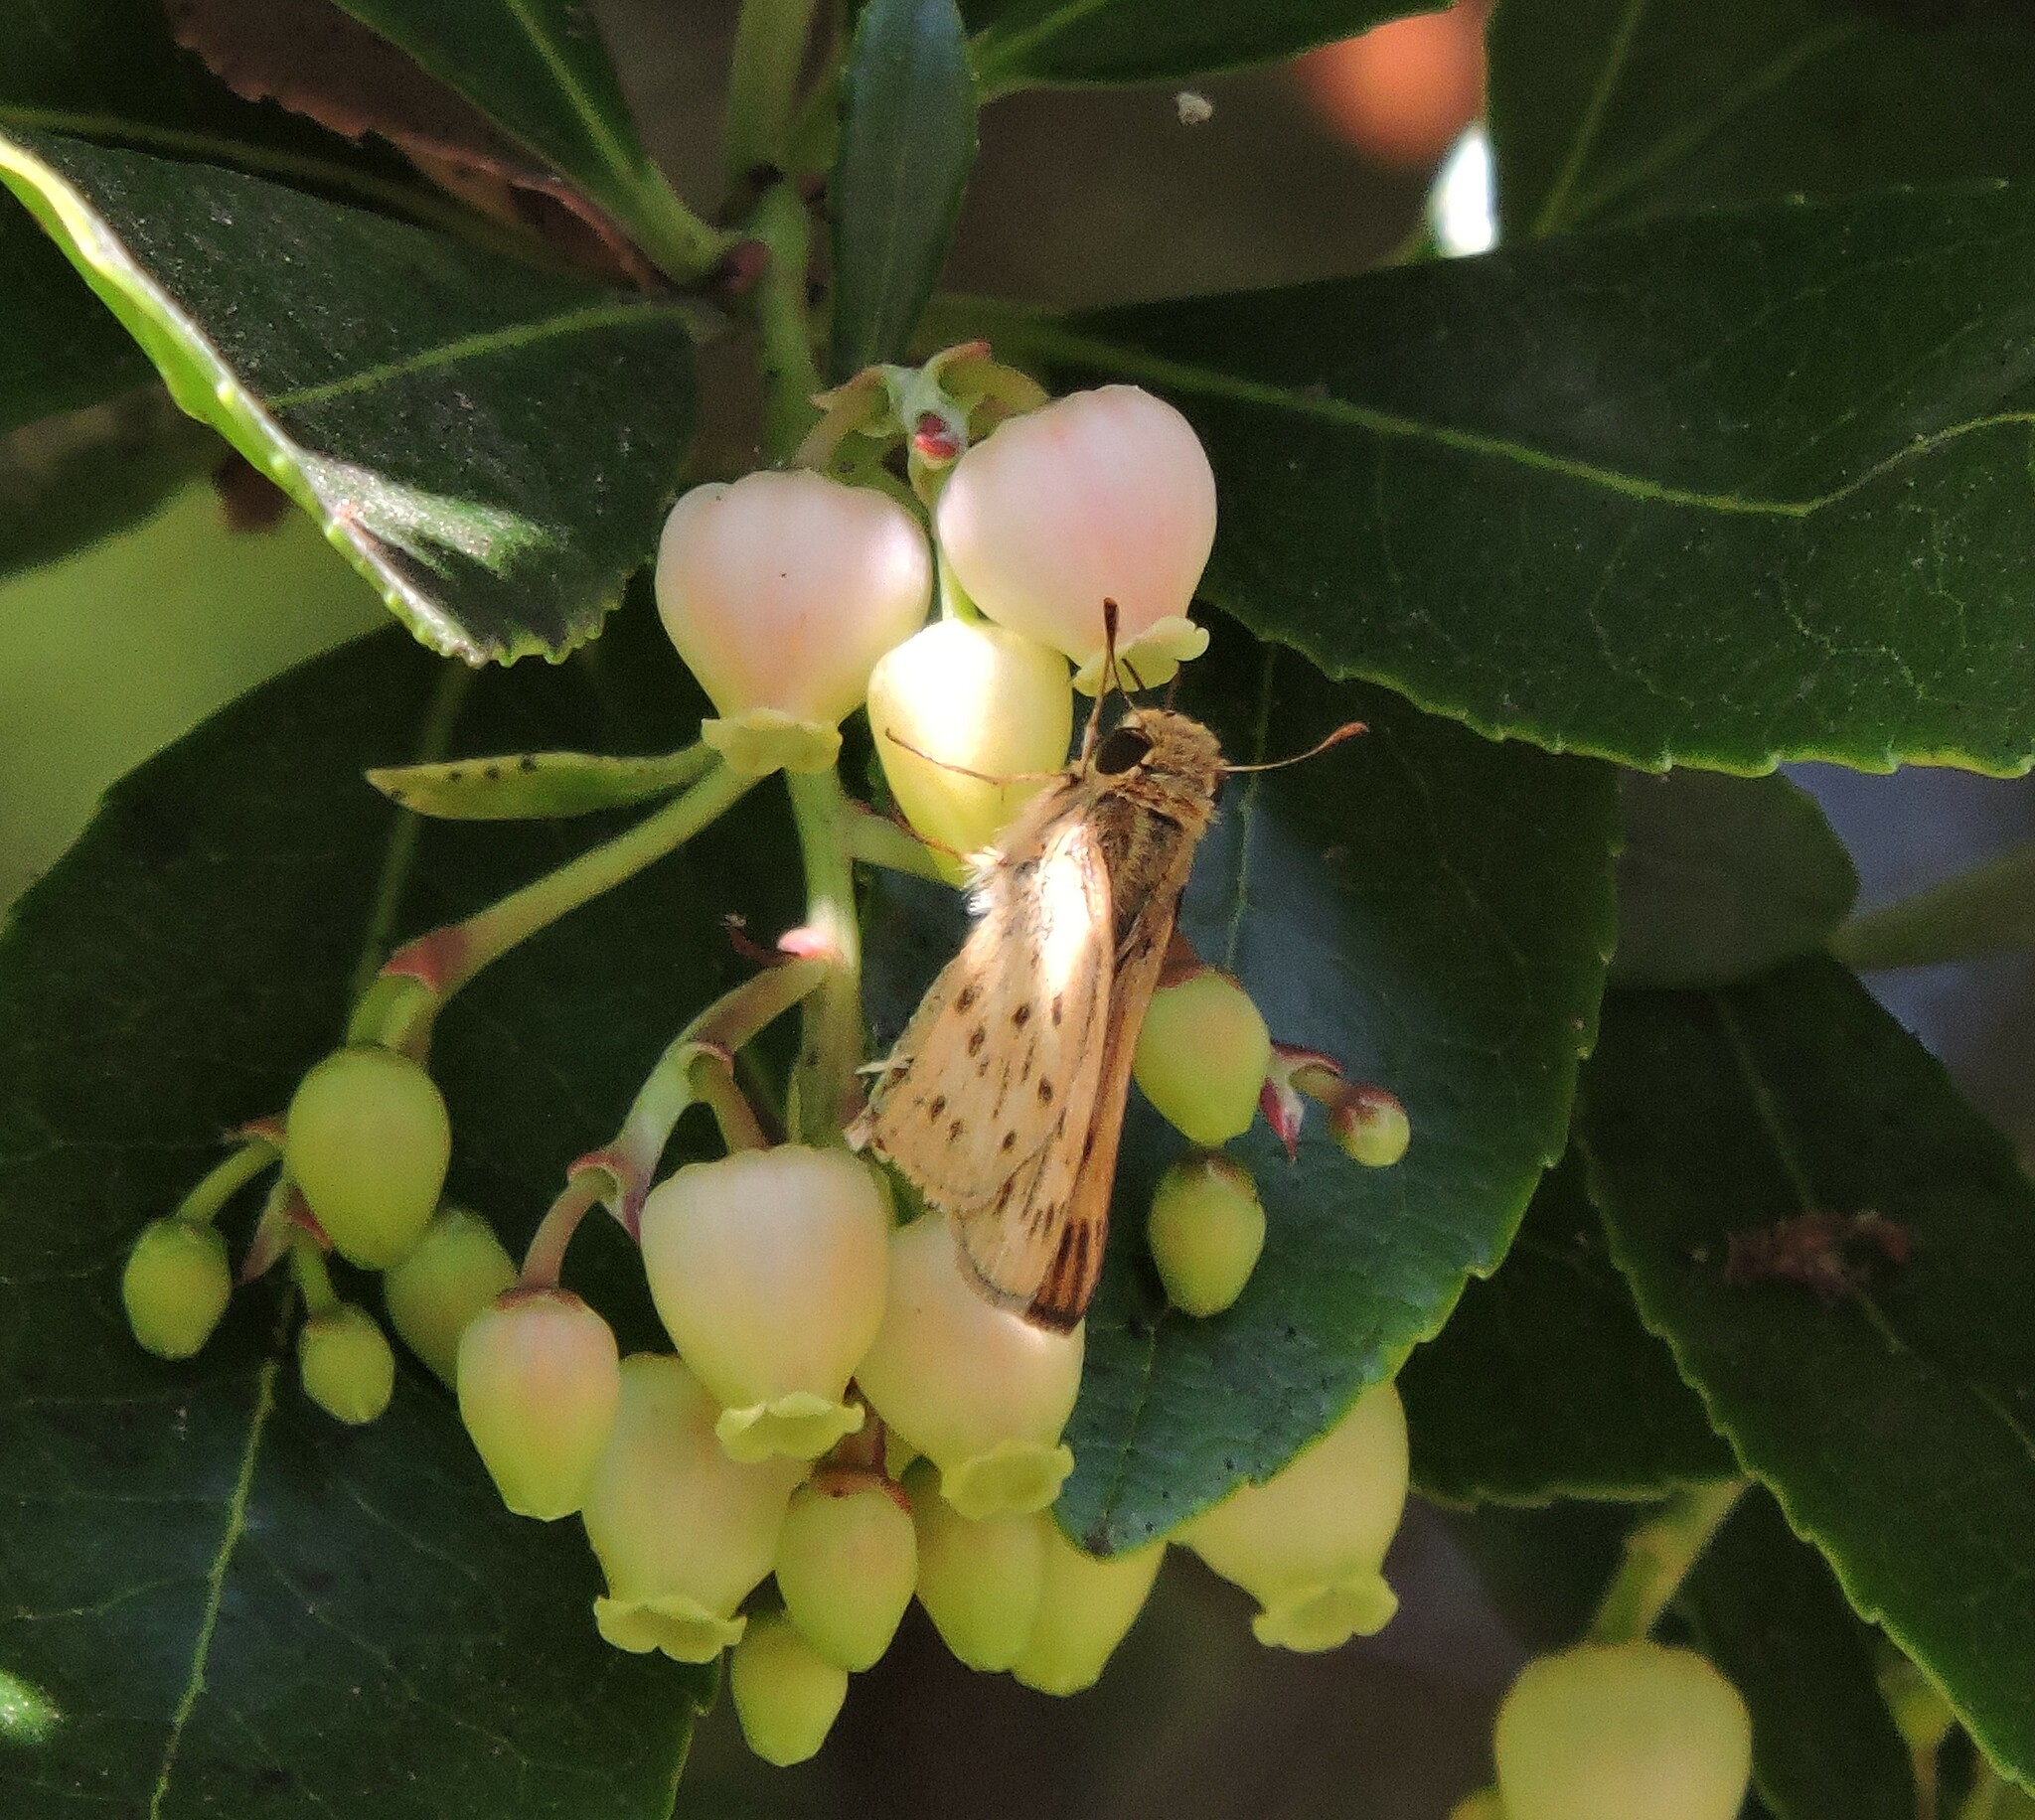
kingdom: Animalia
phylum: Arthropoda
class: Insecta
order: Lepidoptera
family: Hesperiidae
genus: Hylephila
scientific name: Hylephila phyleus
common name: Fiery skipper
